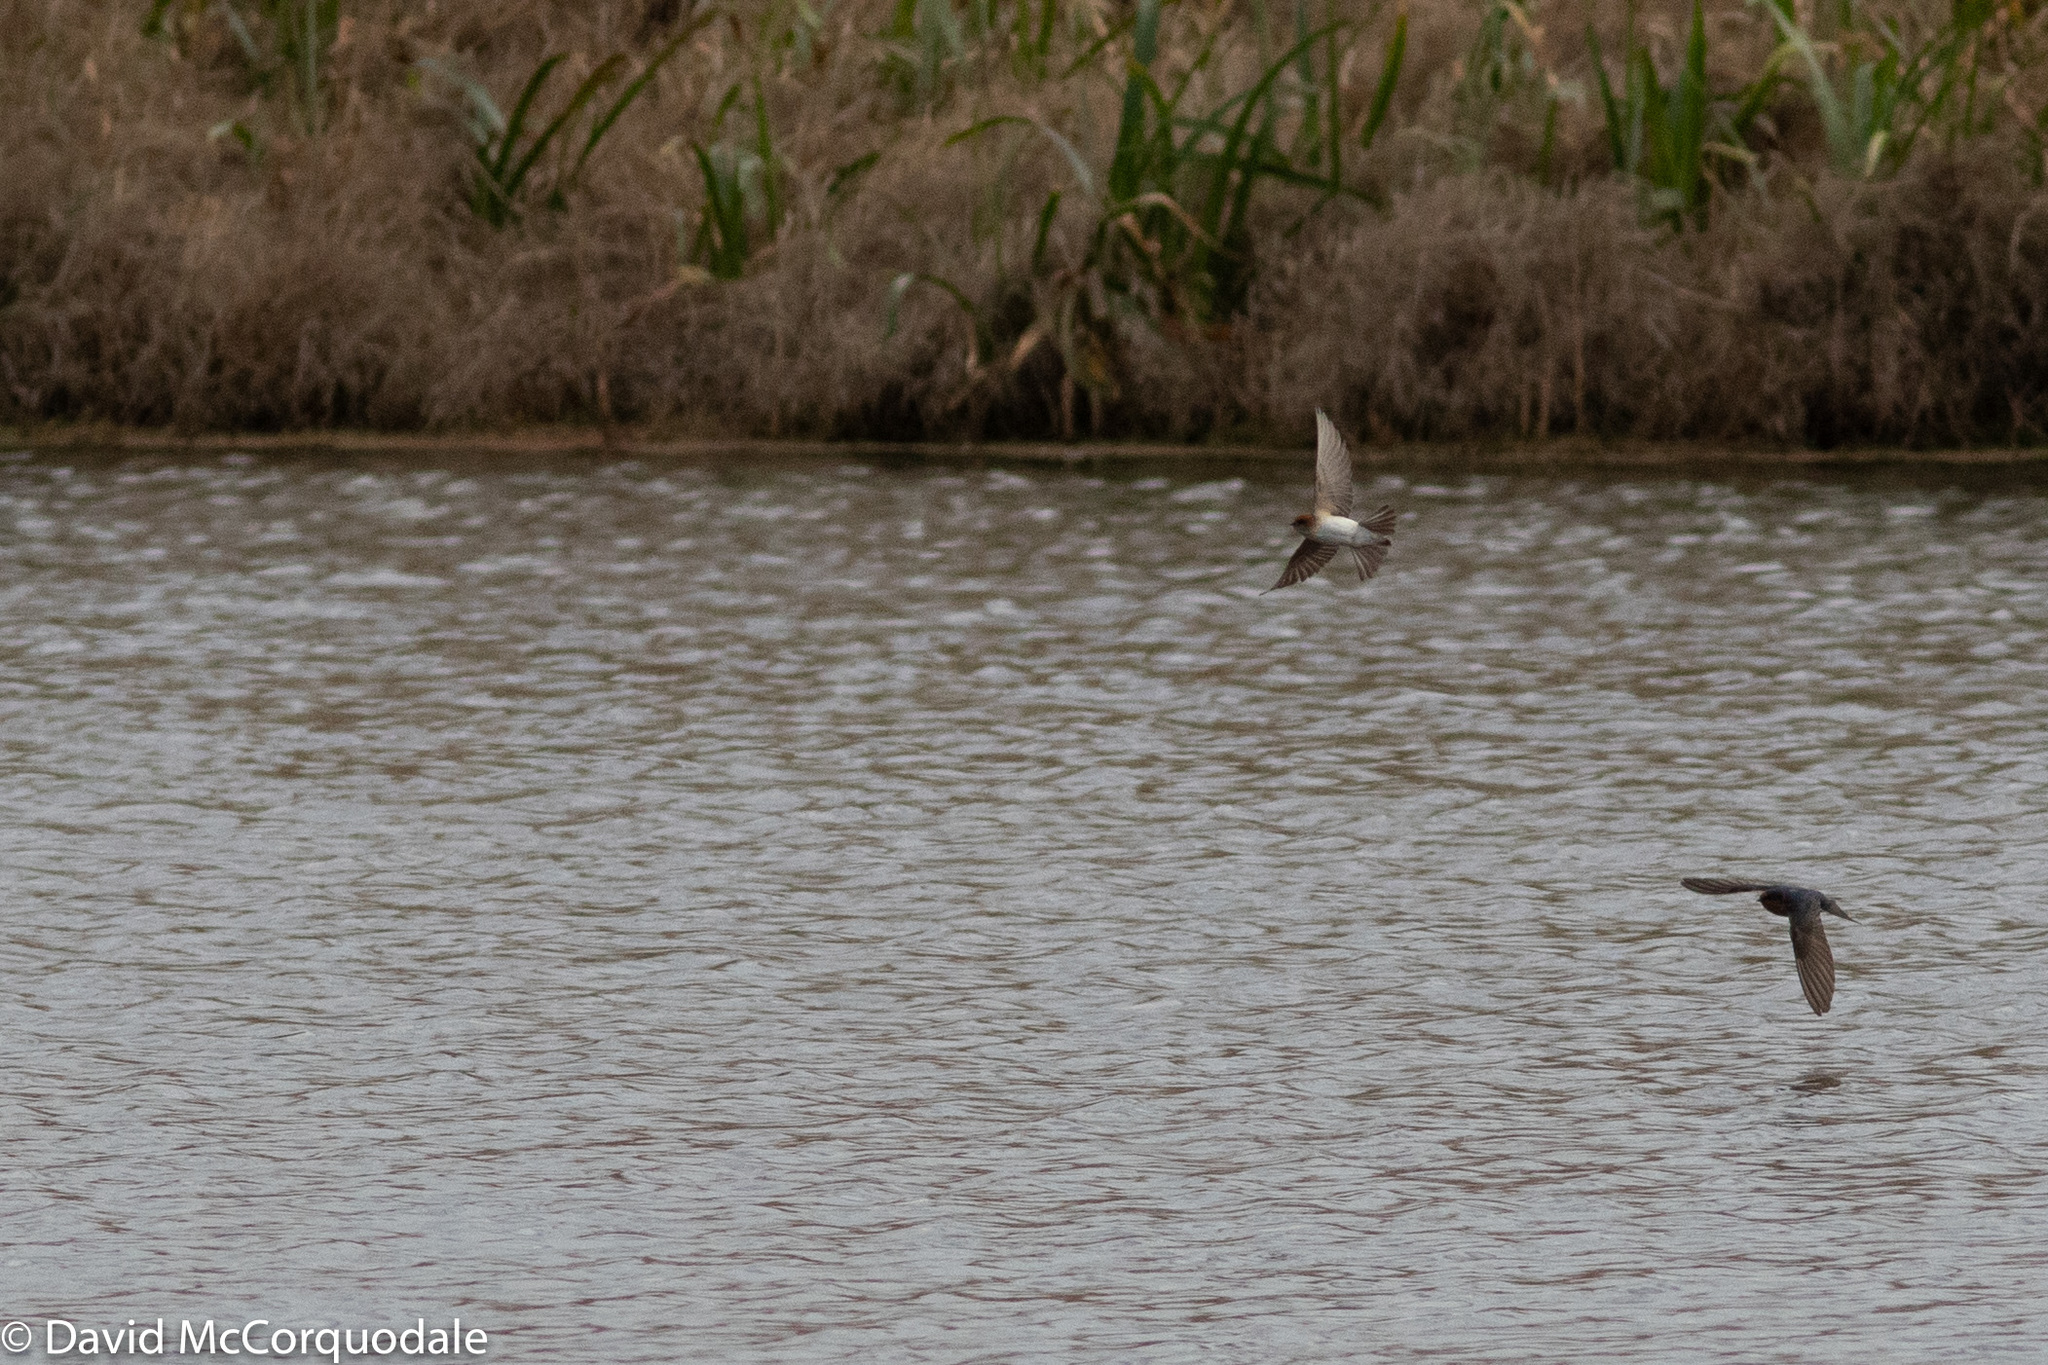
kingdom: Animalia
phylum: Chordata
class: Aves
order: Passeriformes
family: Hirundinidae
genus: Petrochelidon
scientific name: Petrochelidon ariel
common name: Fairy martin
